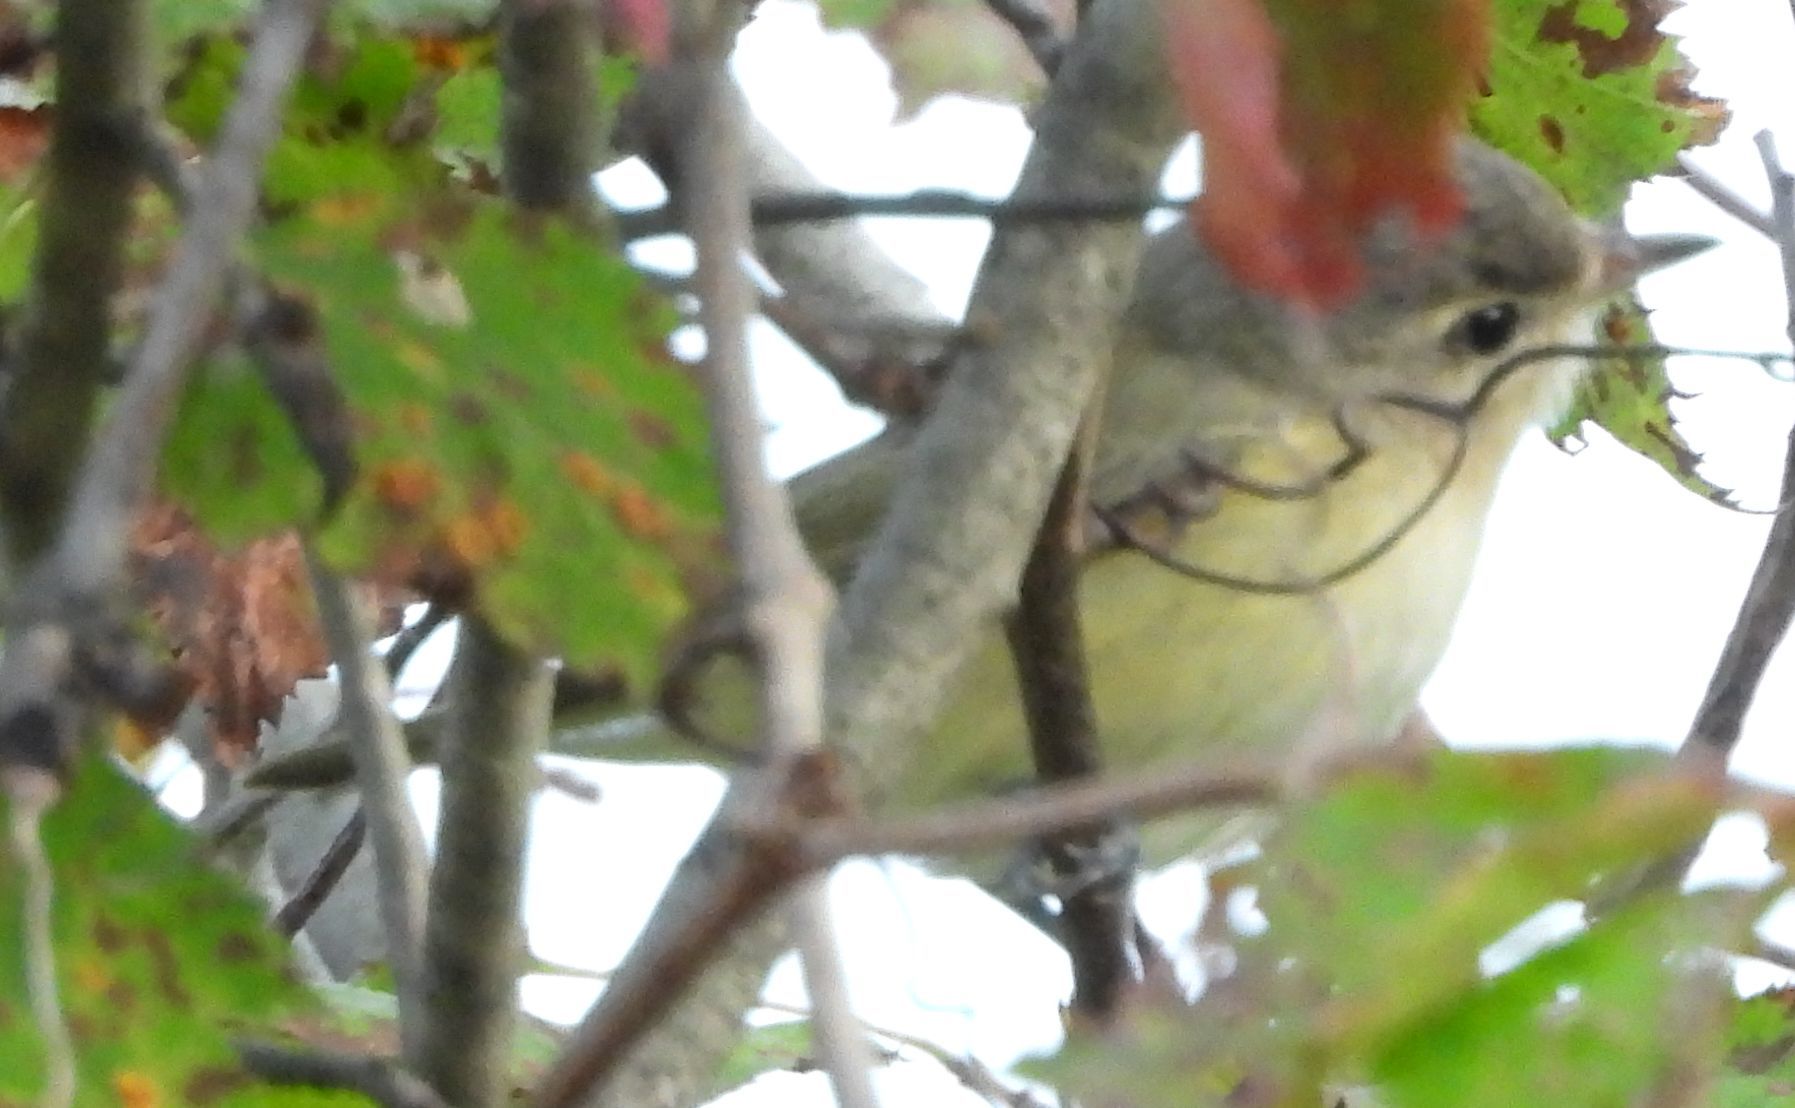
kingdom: Animalia
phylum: Chordata
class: Aves
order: Passeriformes
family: Vireonidae
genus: Vireo
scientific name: Vireo gilvus
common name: Warbling vireo
